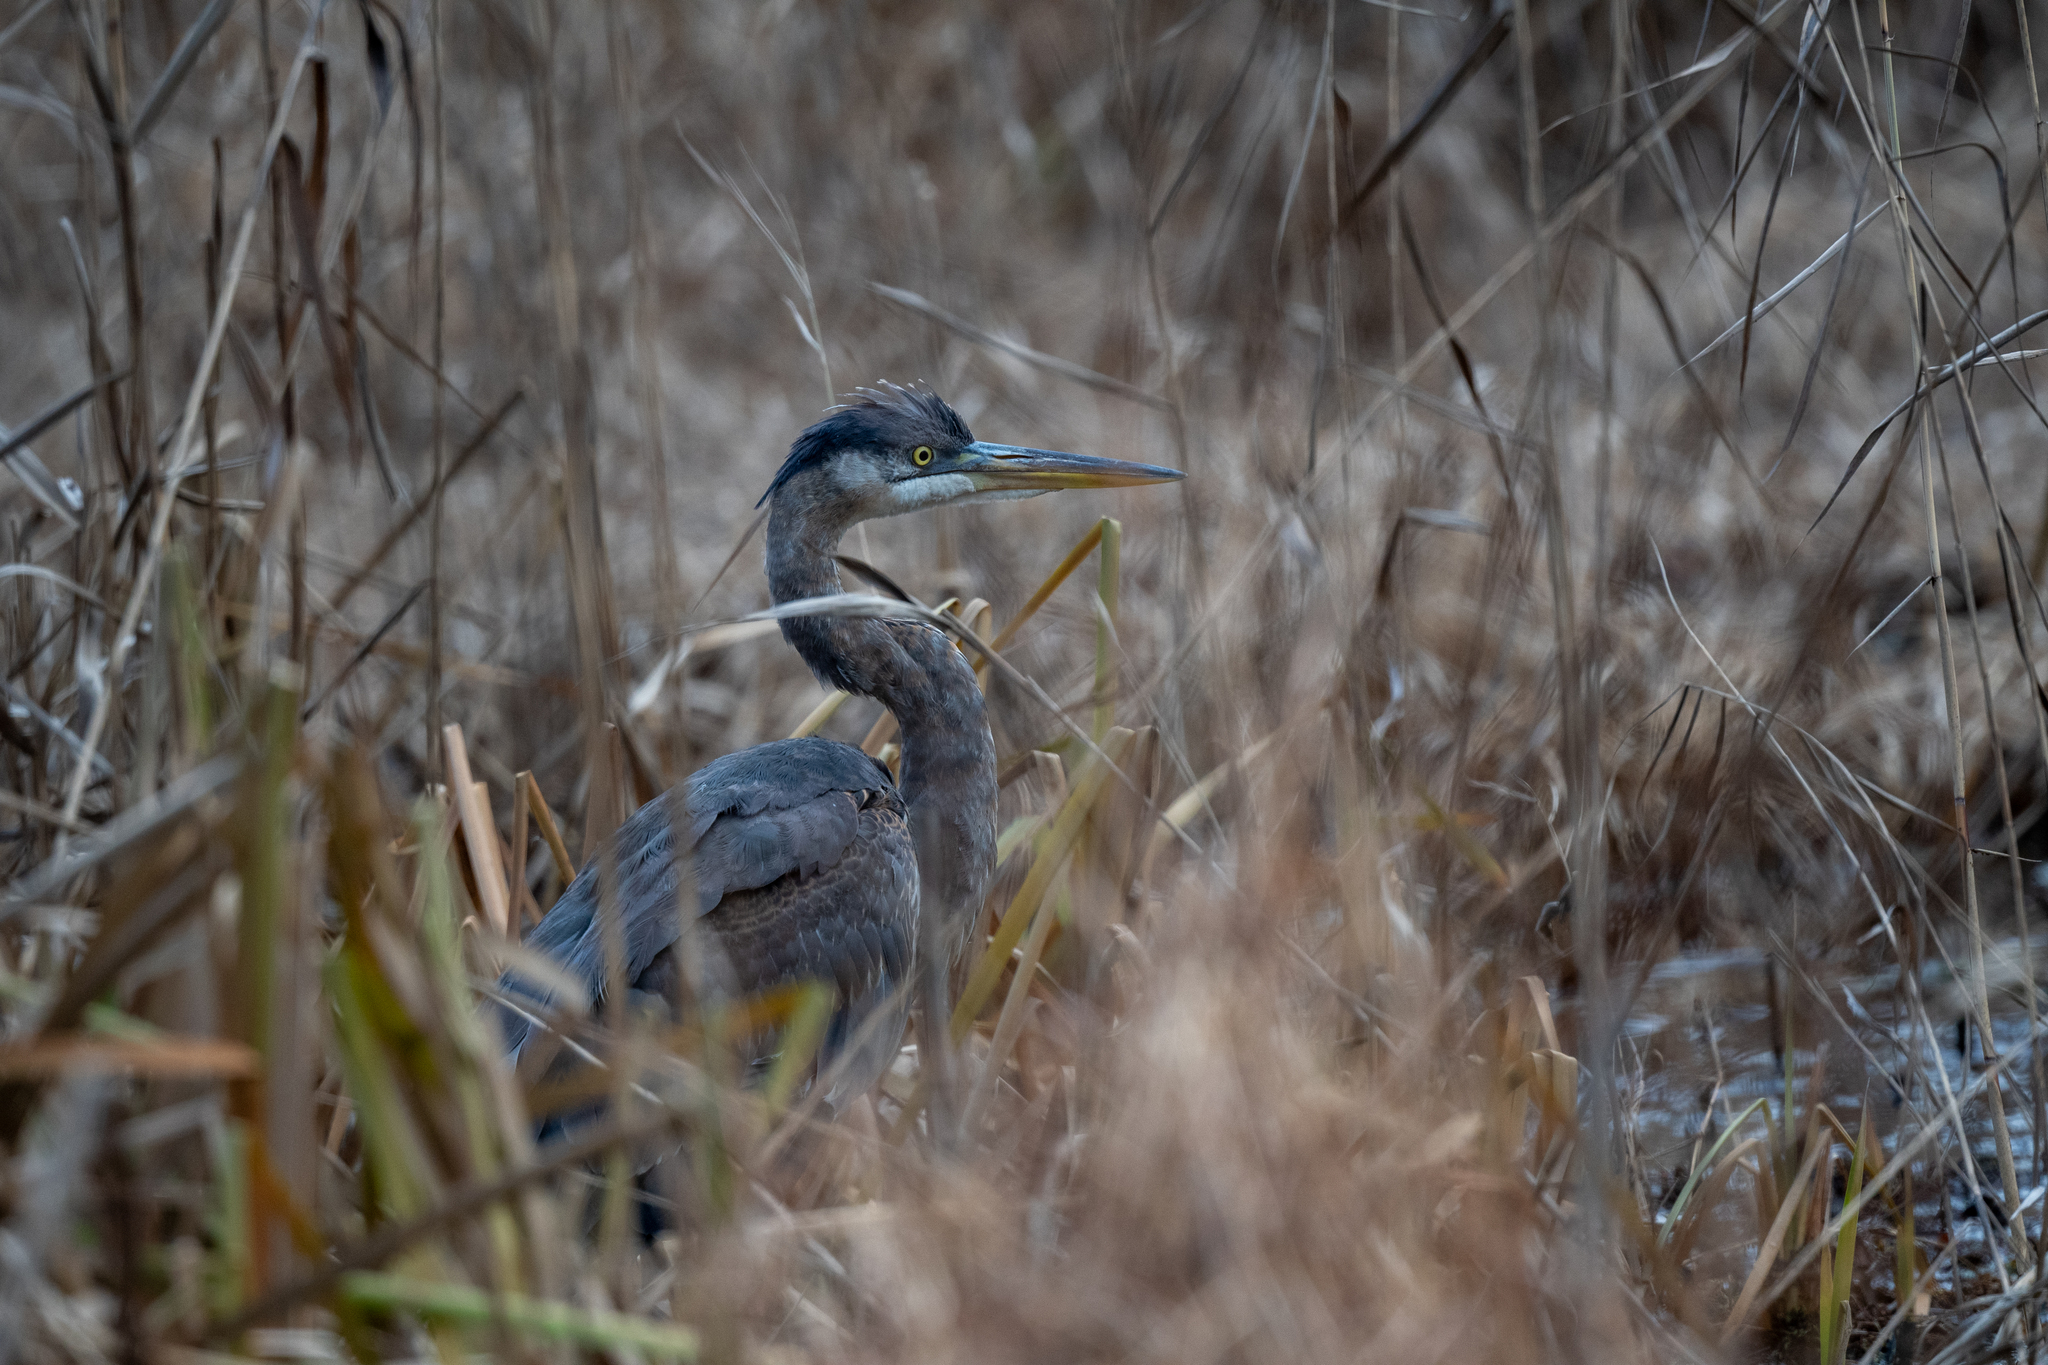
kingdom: Animalia
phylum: Chordata
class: Aves
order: Pelecaniformes
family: Ardeidae
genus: Ardea
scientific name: Ardea herodias
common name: Great blue heron
